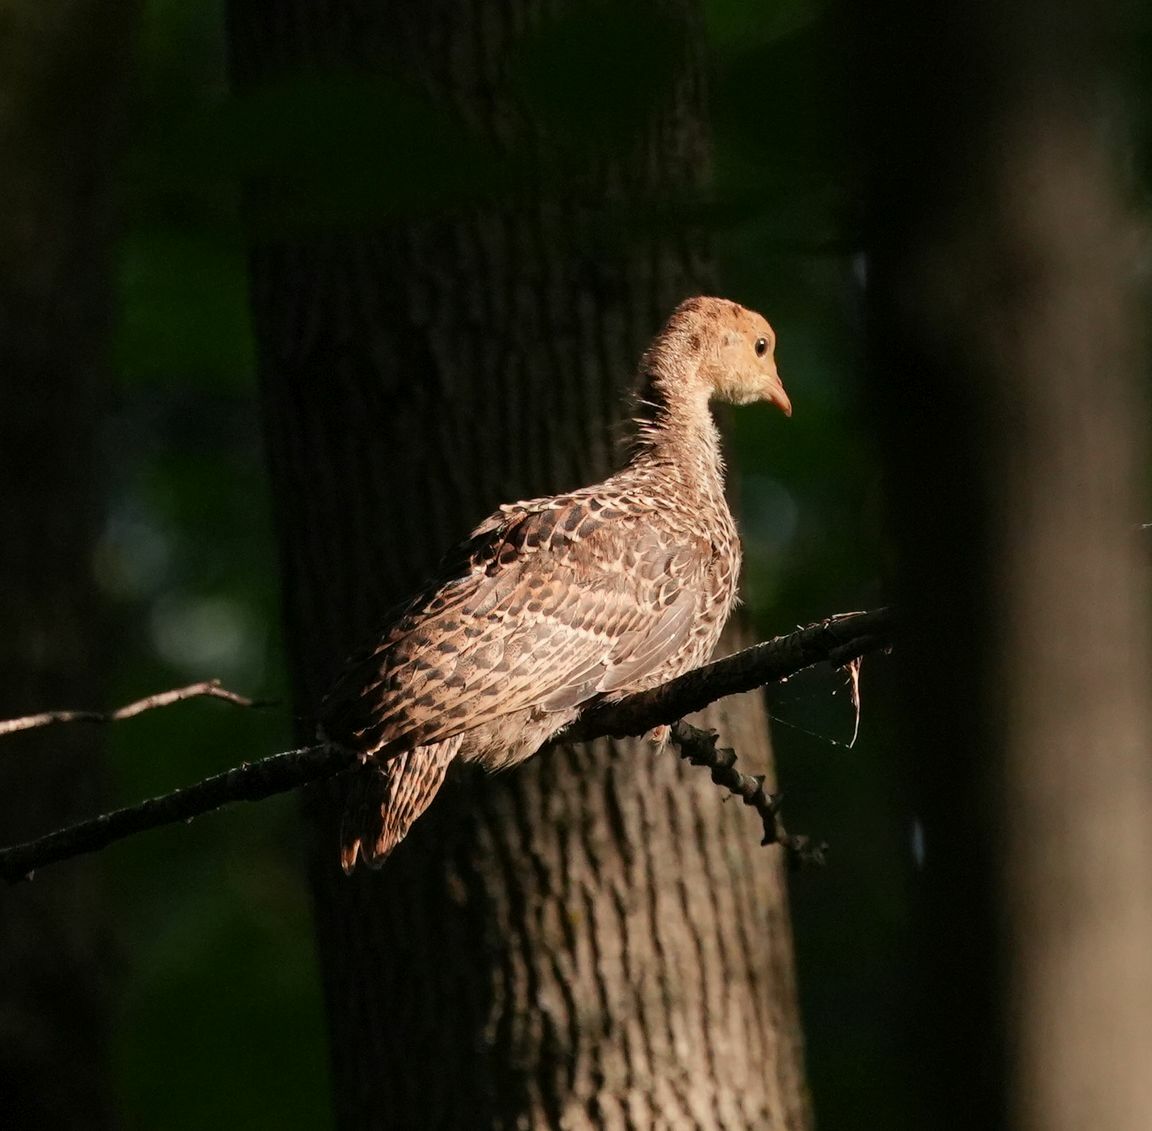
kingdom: Animalia
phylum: Chordata
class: Aves
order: Galliformes
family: Phasianidae
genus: Meleagris
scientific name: Meleagris gallopavo
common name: Wild turkey
